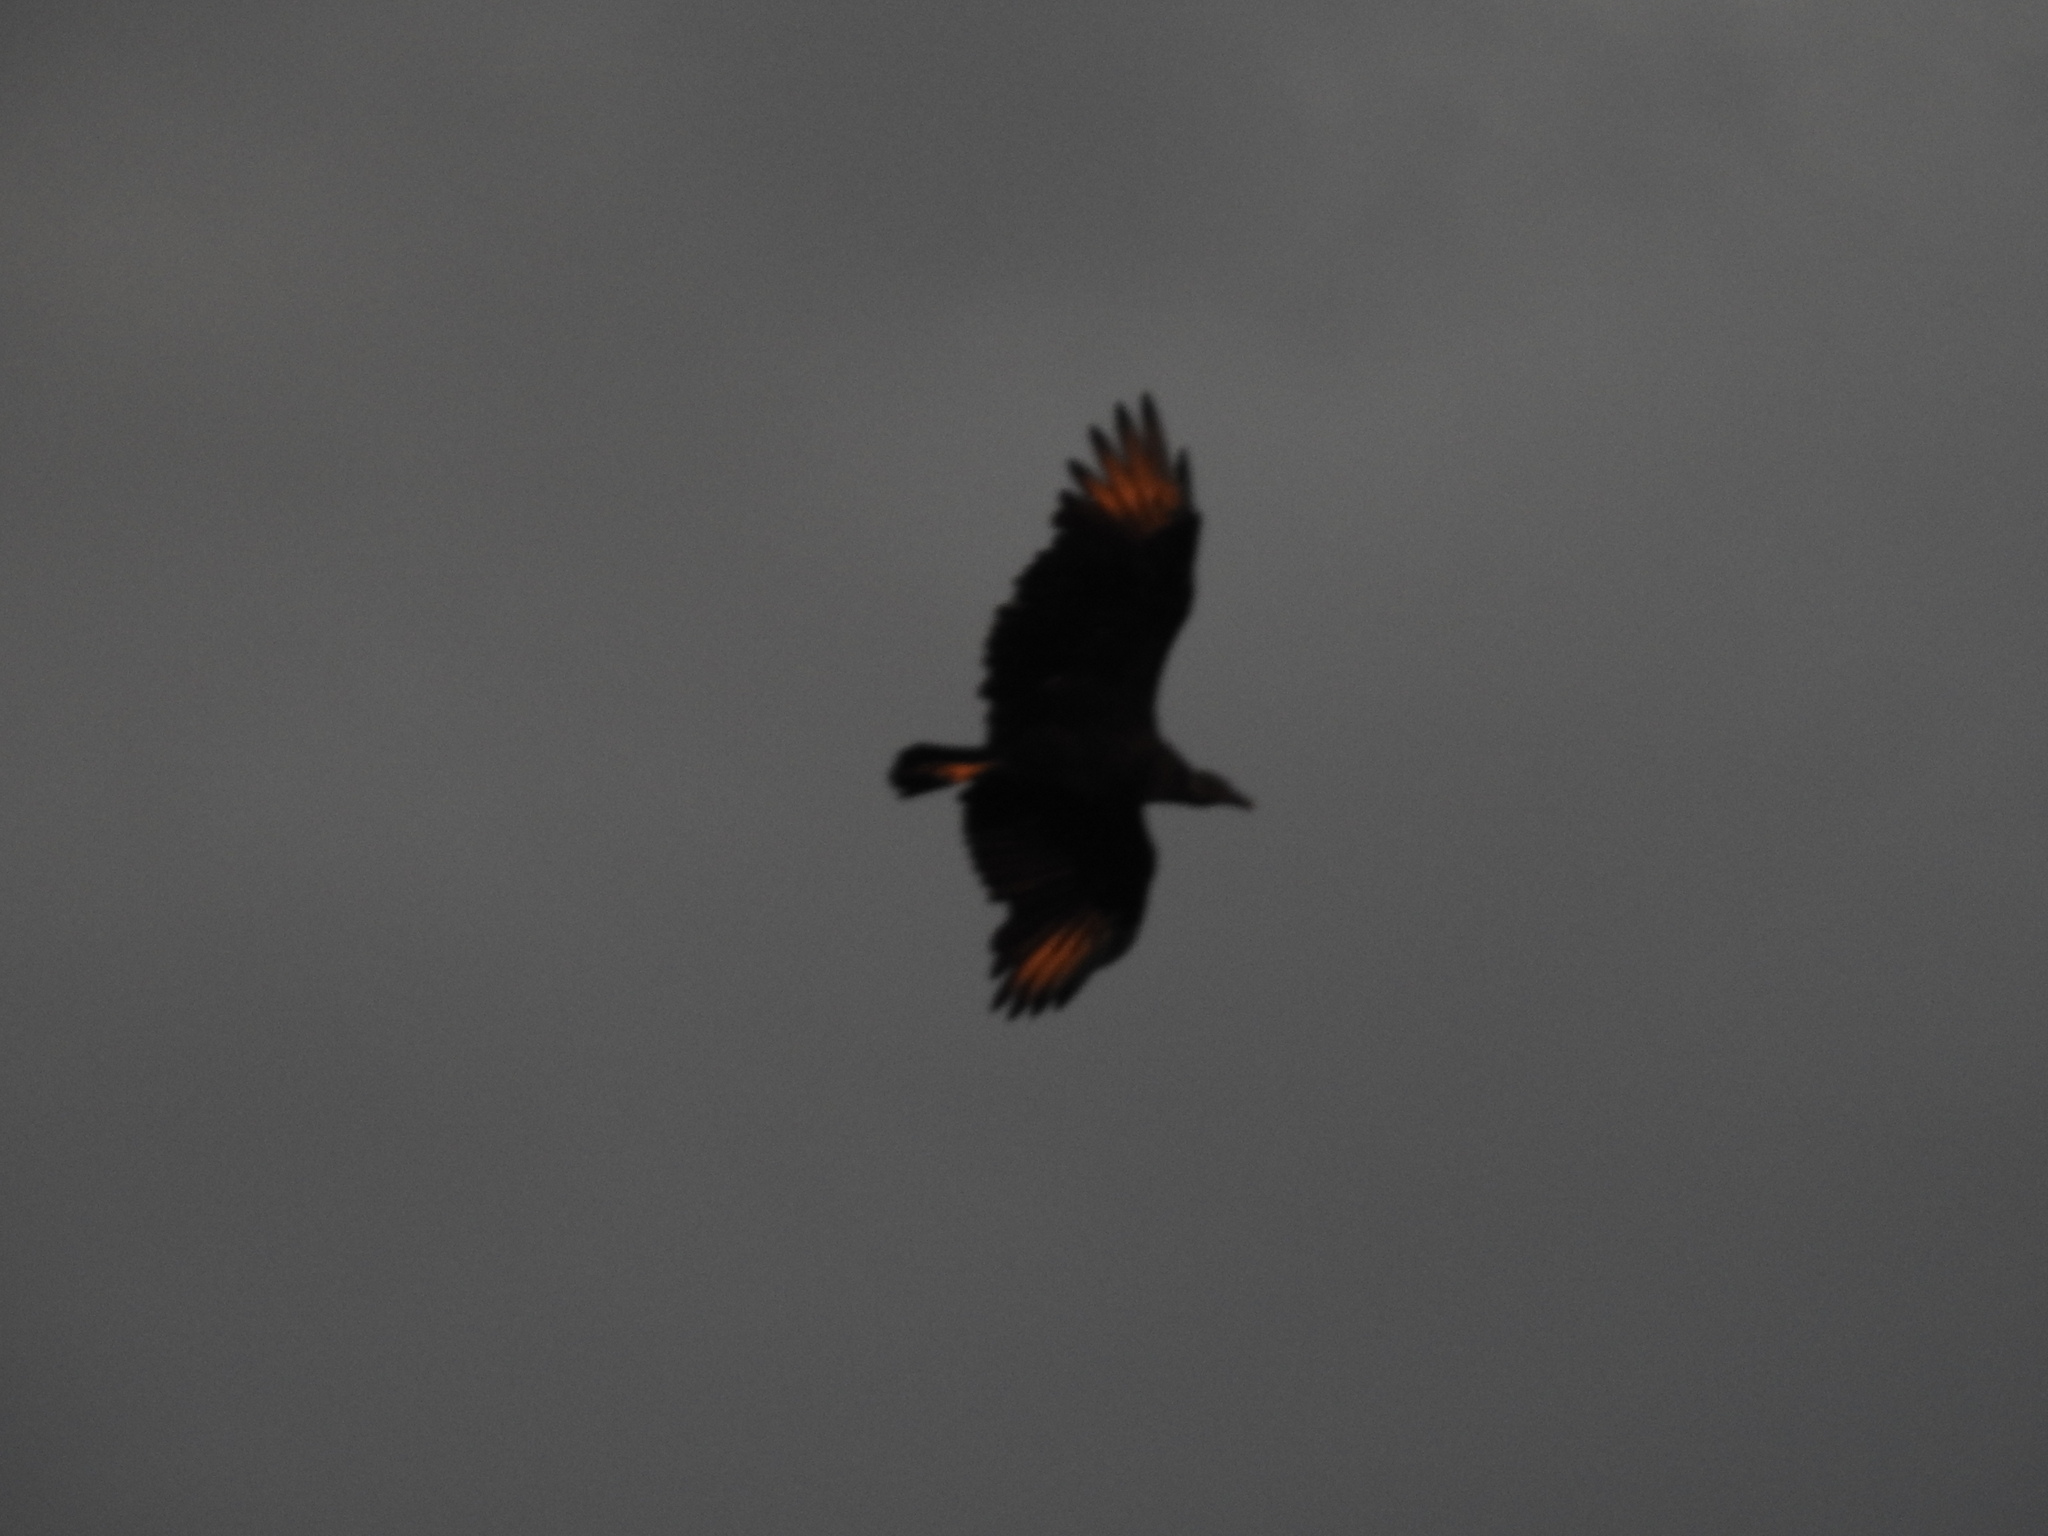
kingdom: Animalia
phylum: Chordata
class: Aves
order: Accipitriformes
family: Cathartidae
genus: Coragyps
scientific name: Coragyps atratus
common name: Black vulture
